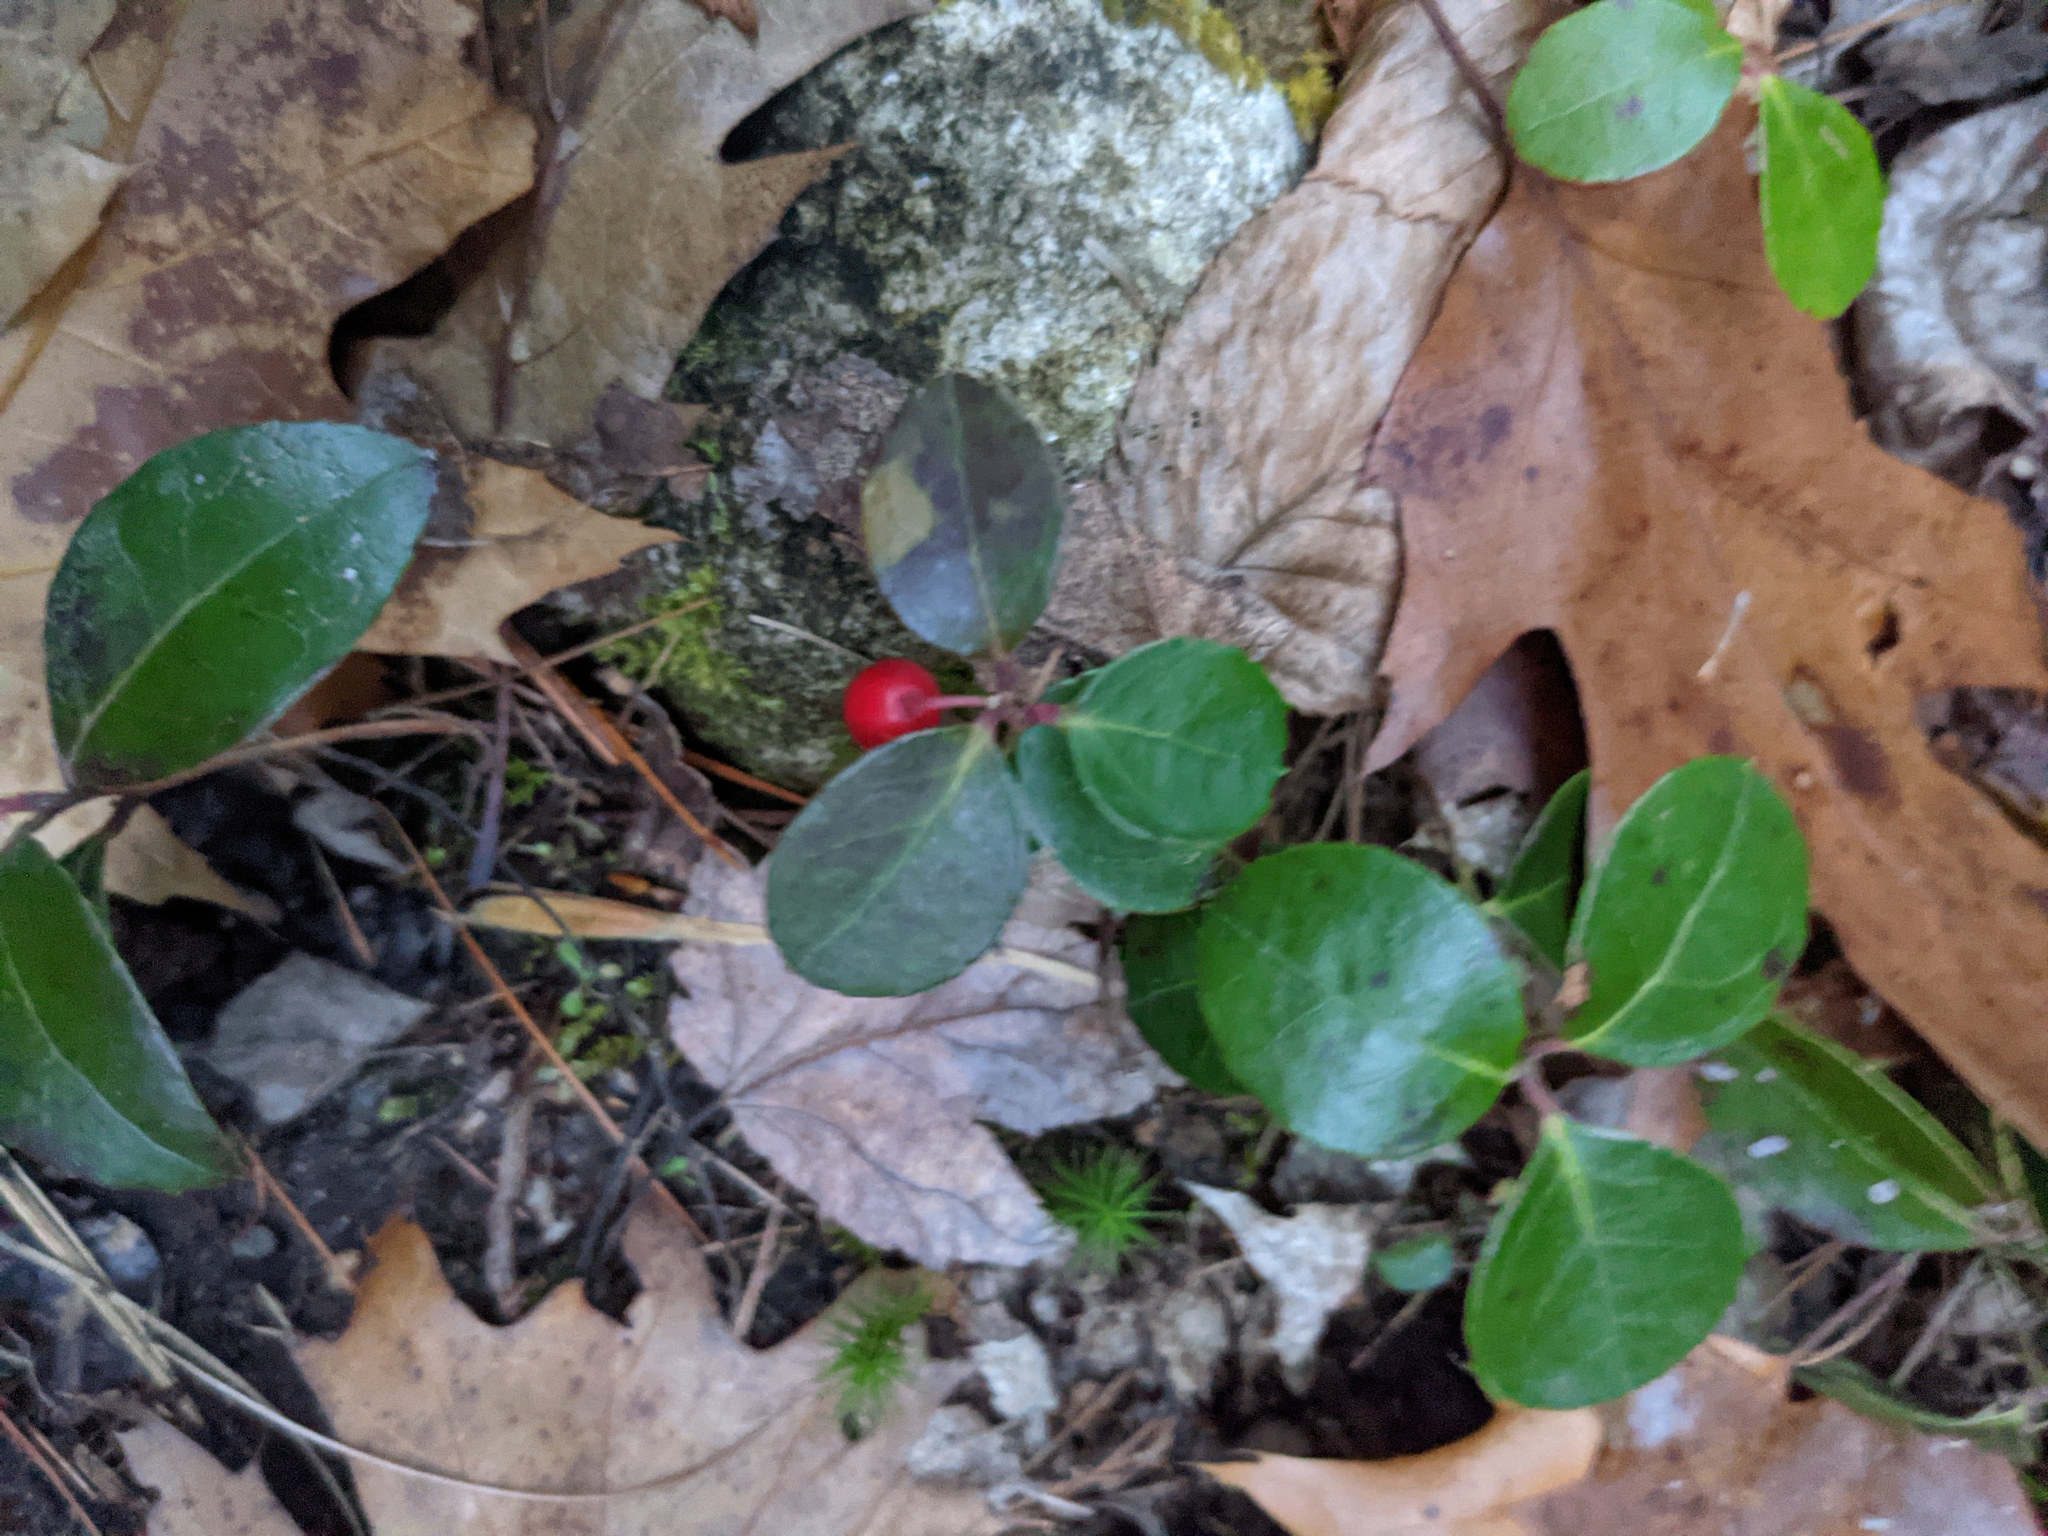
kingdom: Plantae
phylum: Tracheophyta
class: Magnoliopsida
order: Ericales
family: Ericaceae
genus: Gaultheria
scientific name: Gaultheria procumbens
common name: Checkerberry
